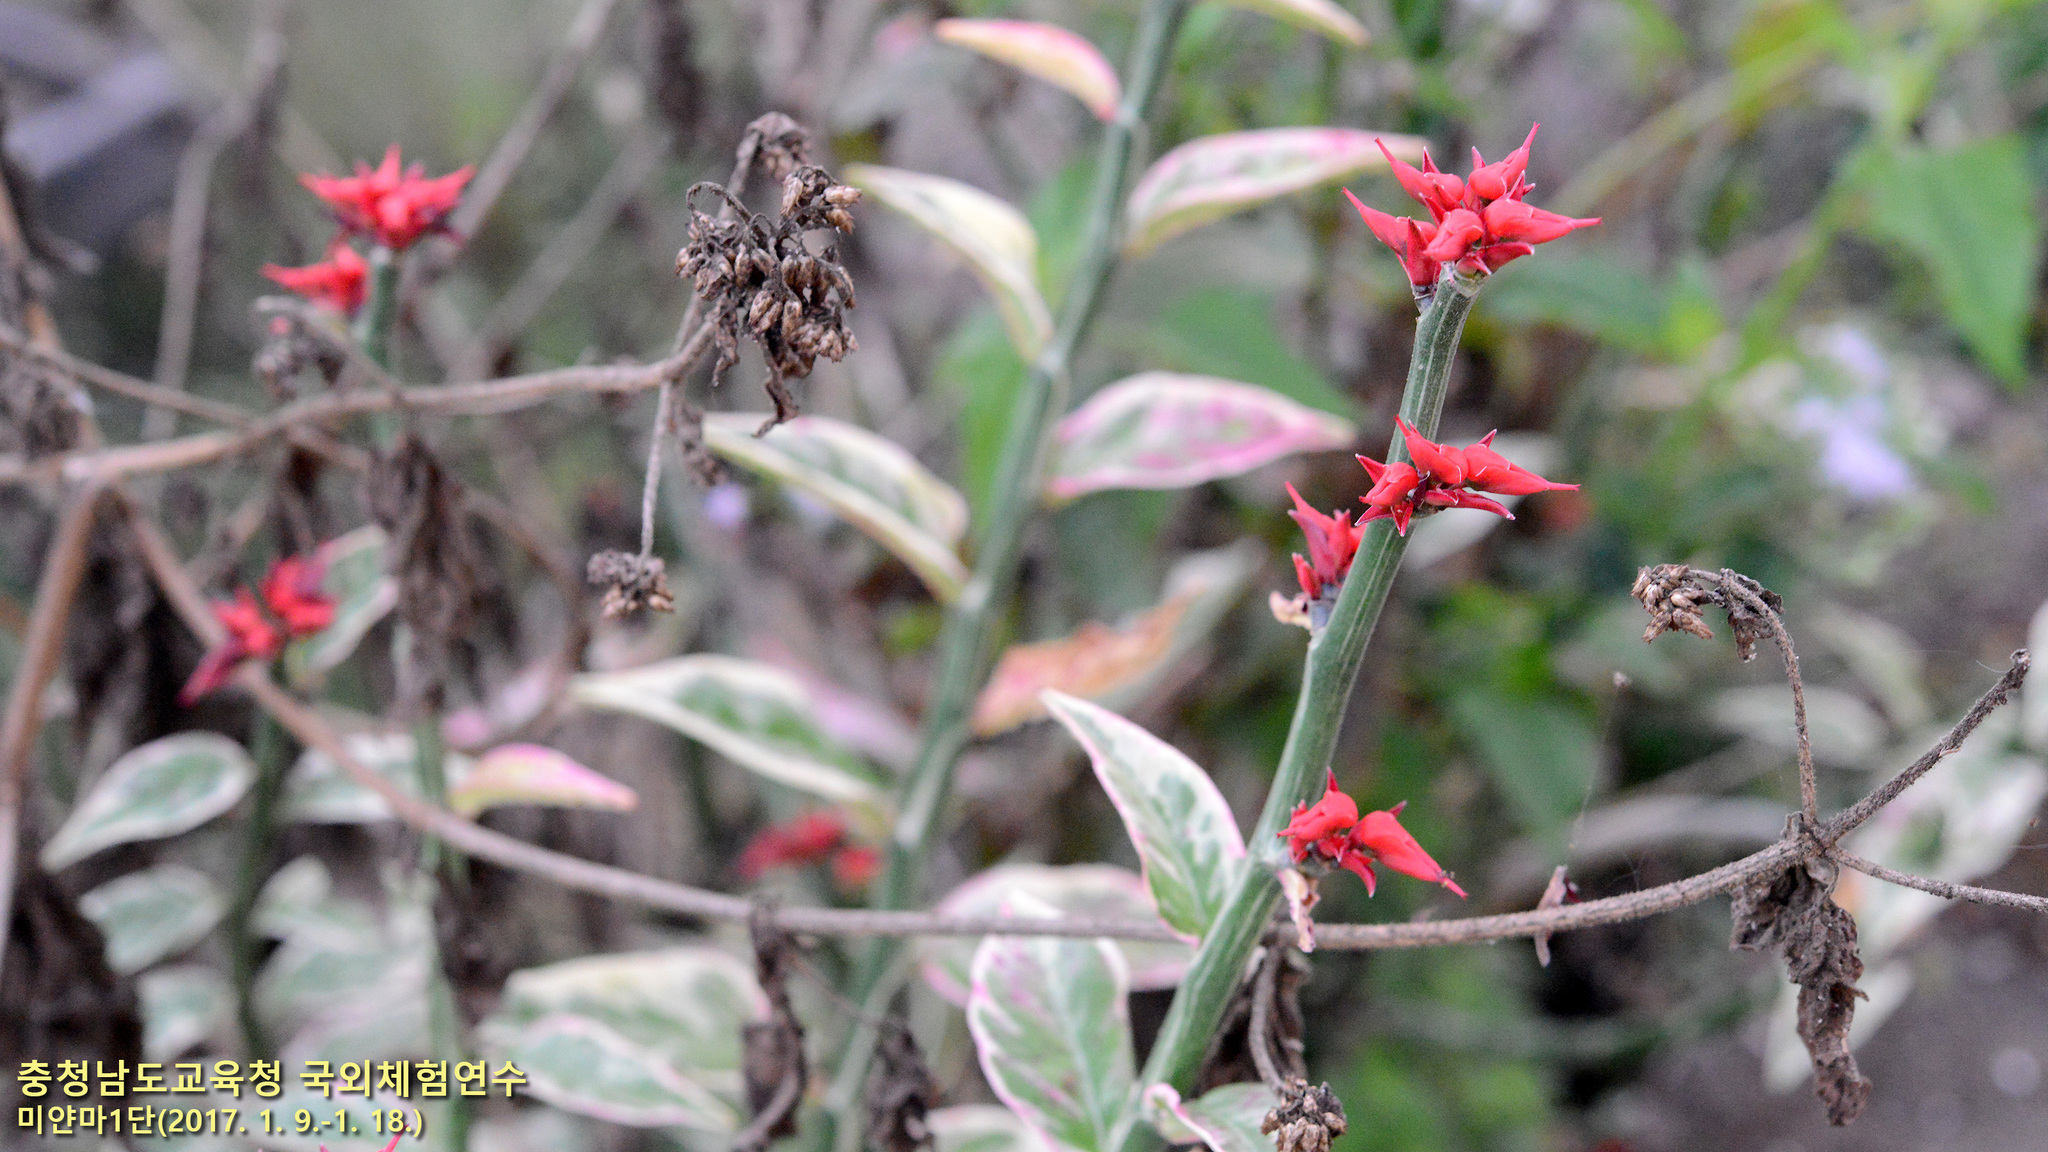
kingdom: Plantae
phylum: Tracheophyta
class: Magnoliopsida
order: Malpighiales
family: Euphorbiaceae
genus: Euphorbia
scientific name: Euphorbia tithymaloides
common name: Slipperplant
